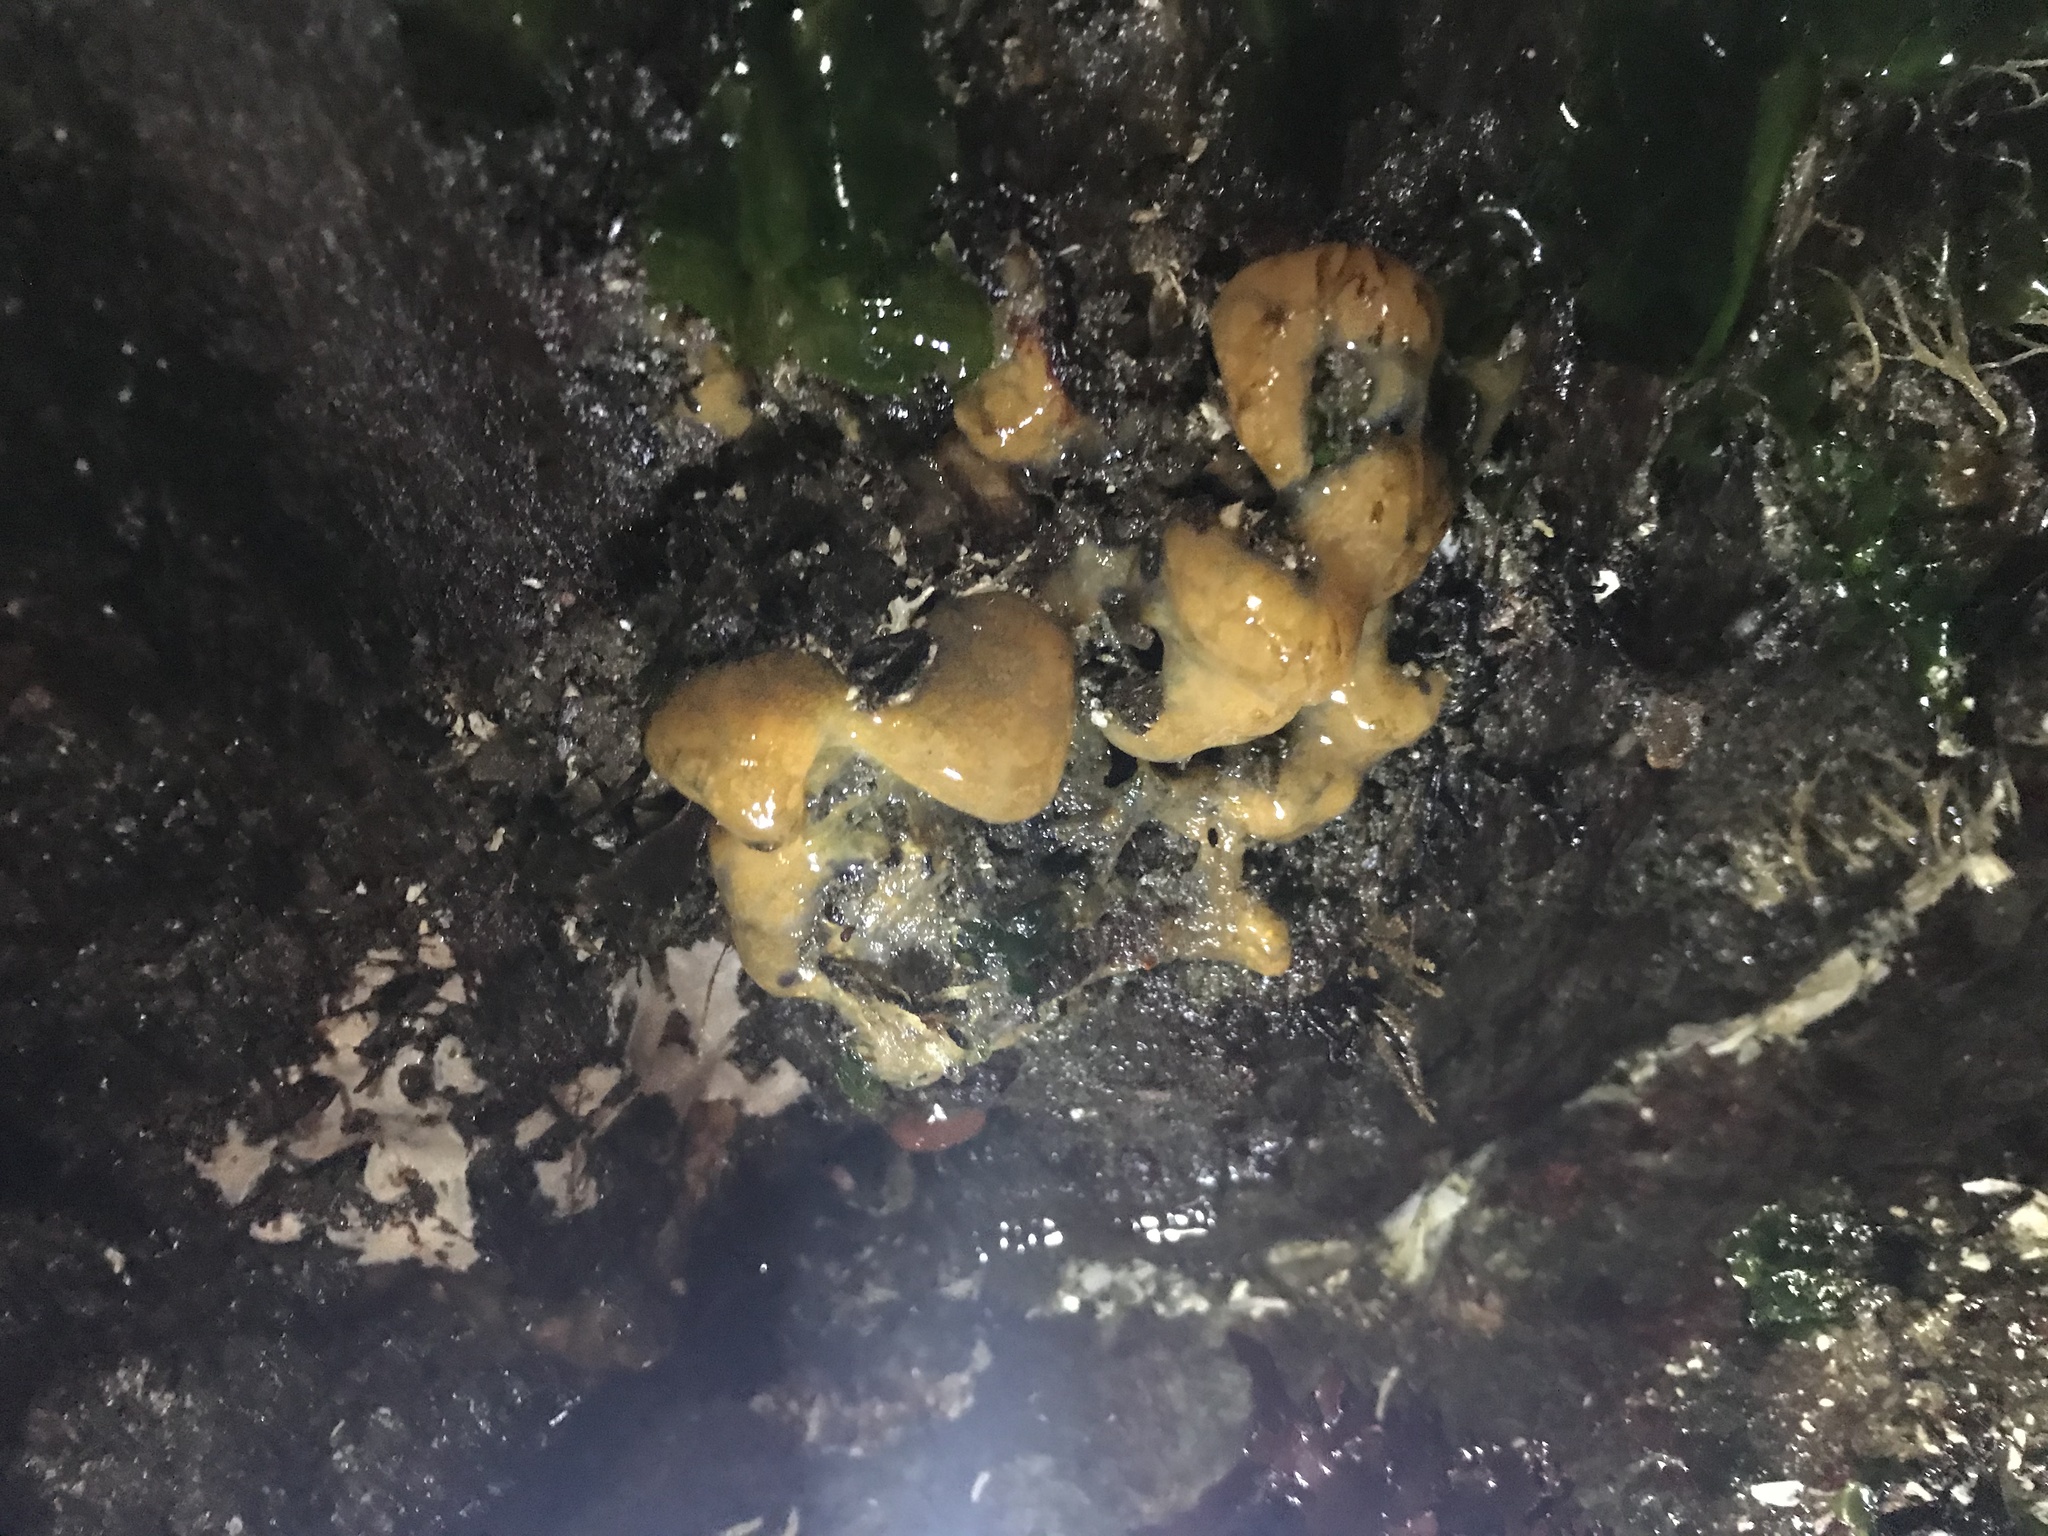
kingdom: Animalia
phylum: Chordata
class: Ascidiacea
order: Aplousobranchia
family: Polyclinidae
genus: Aplidium
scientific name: Aplidium californicum
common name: Sea pork
